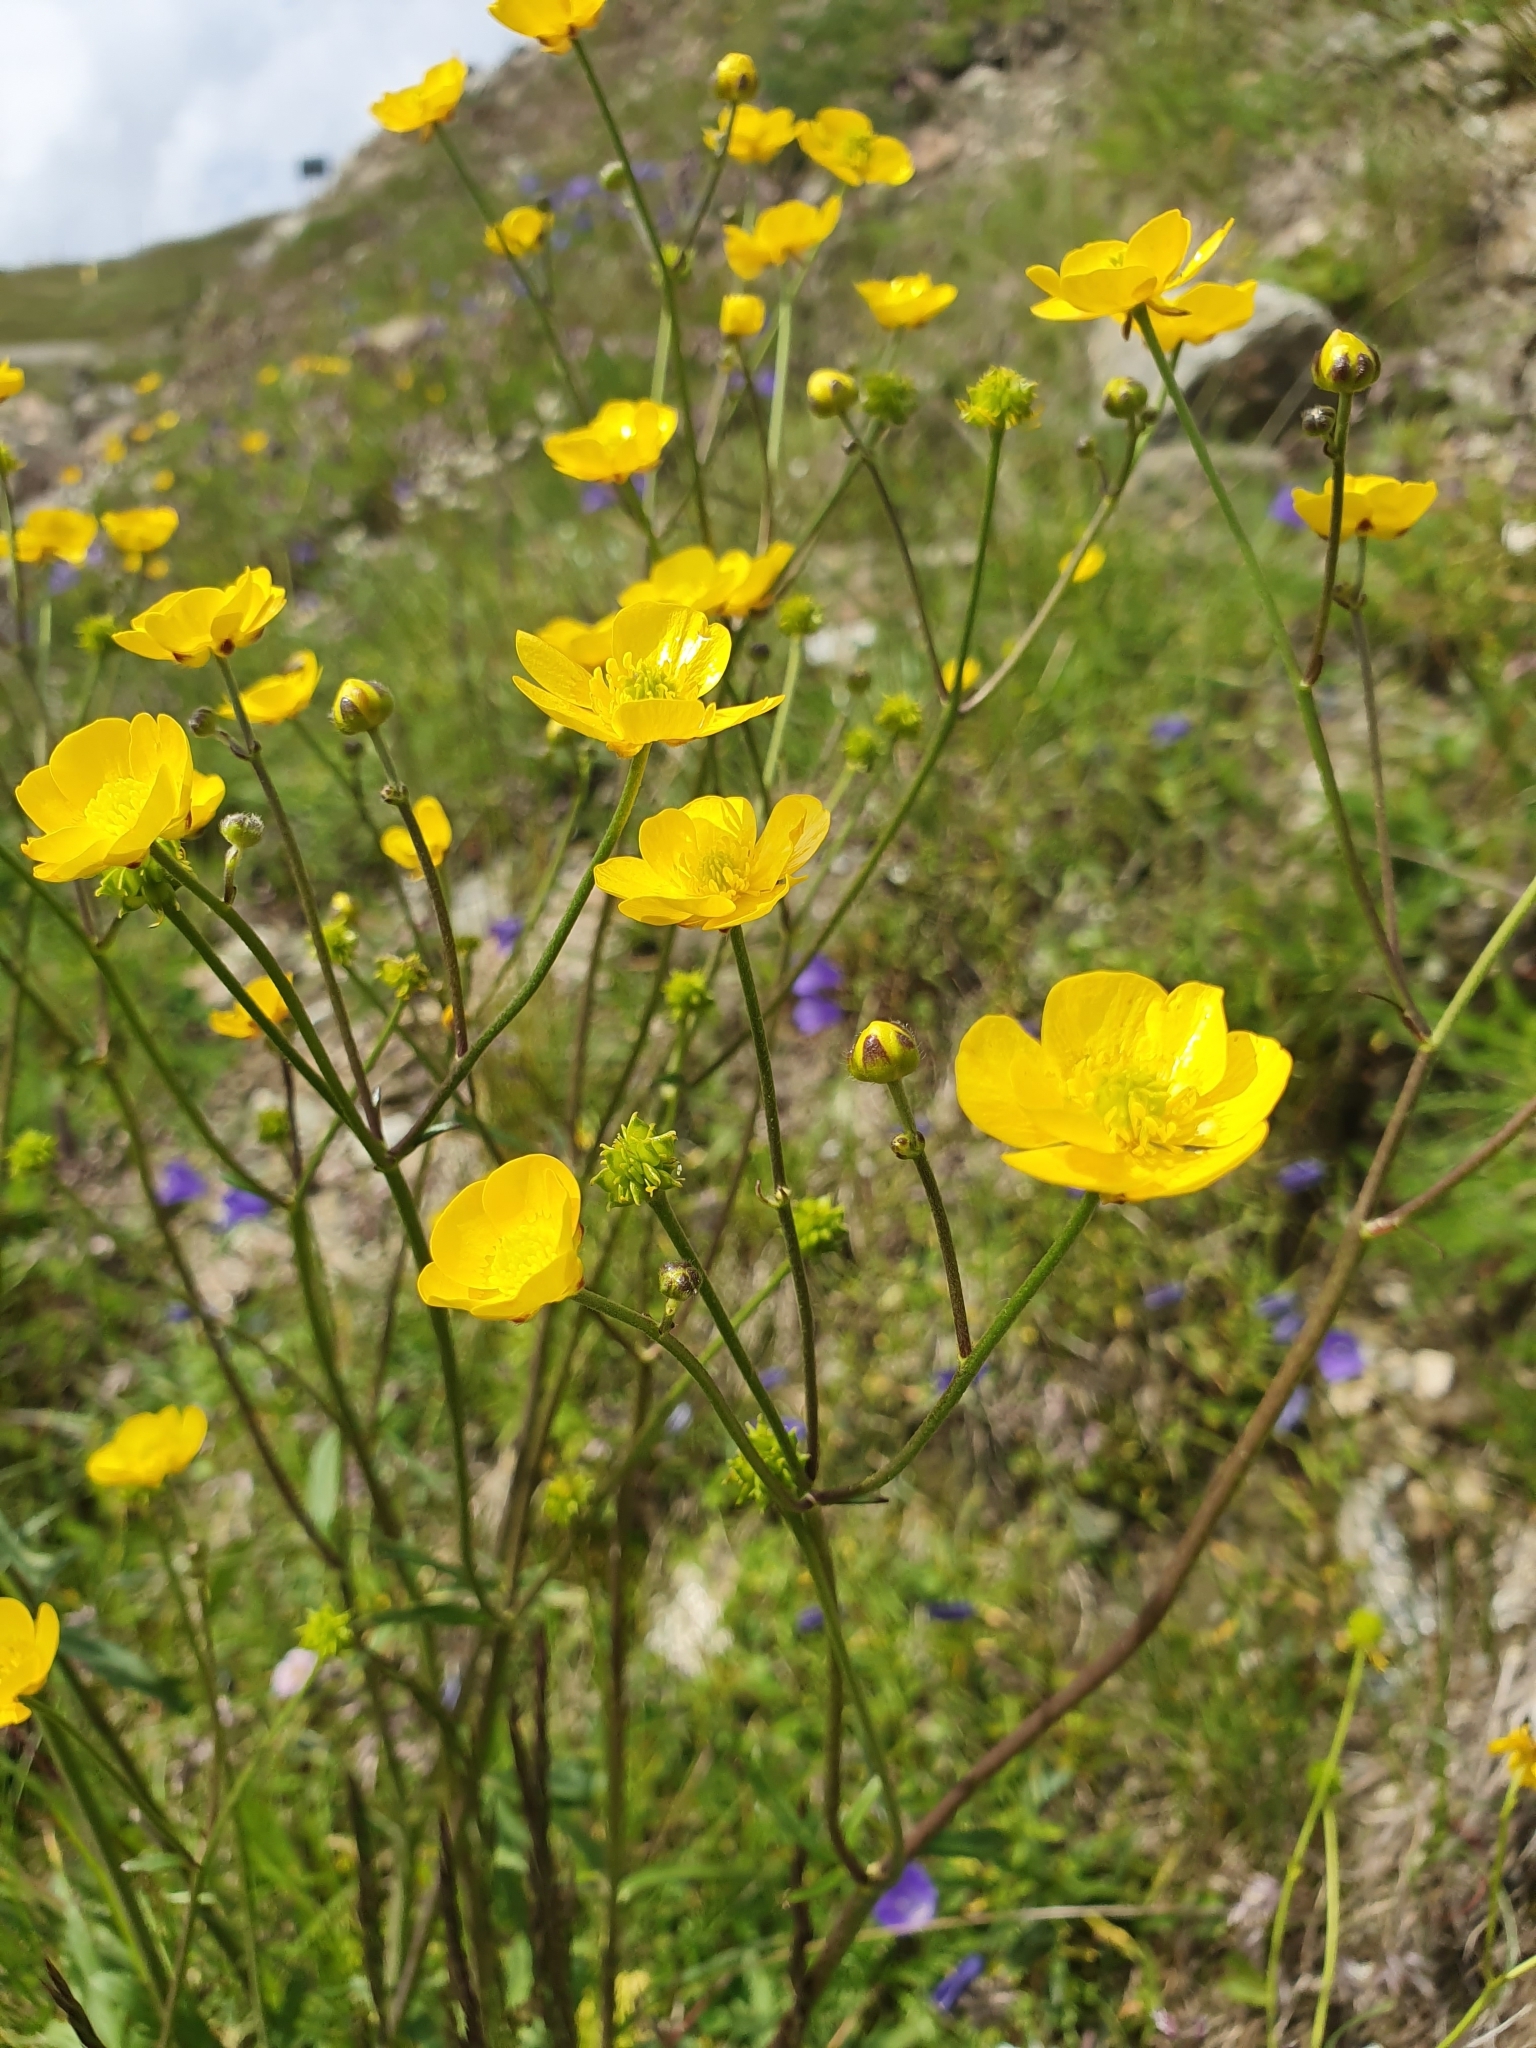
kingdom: Plantae
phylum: Tracheophyta
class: Magnoliopsida
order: Ranunculales
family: Ranunculaceae
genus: Ranunculus
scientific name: Ranunculus acris
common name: Meadow buttercup
